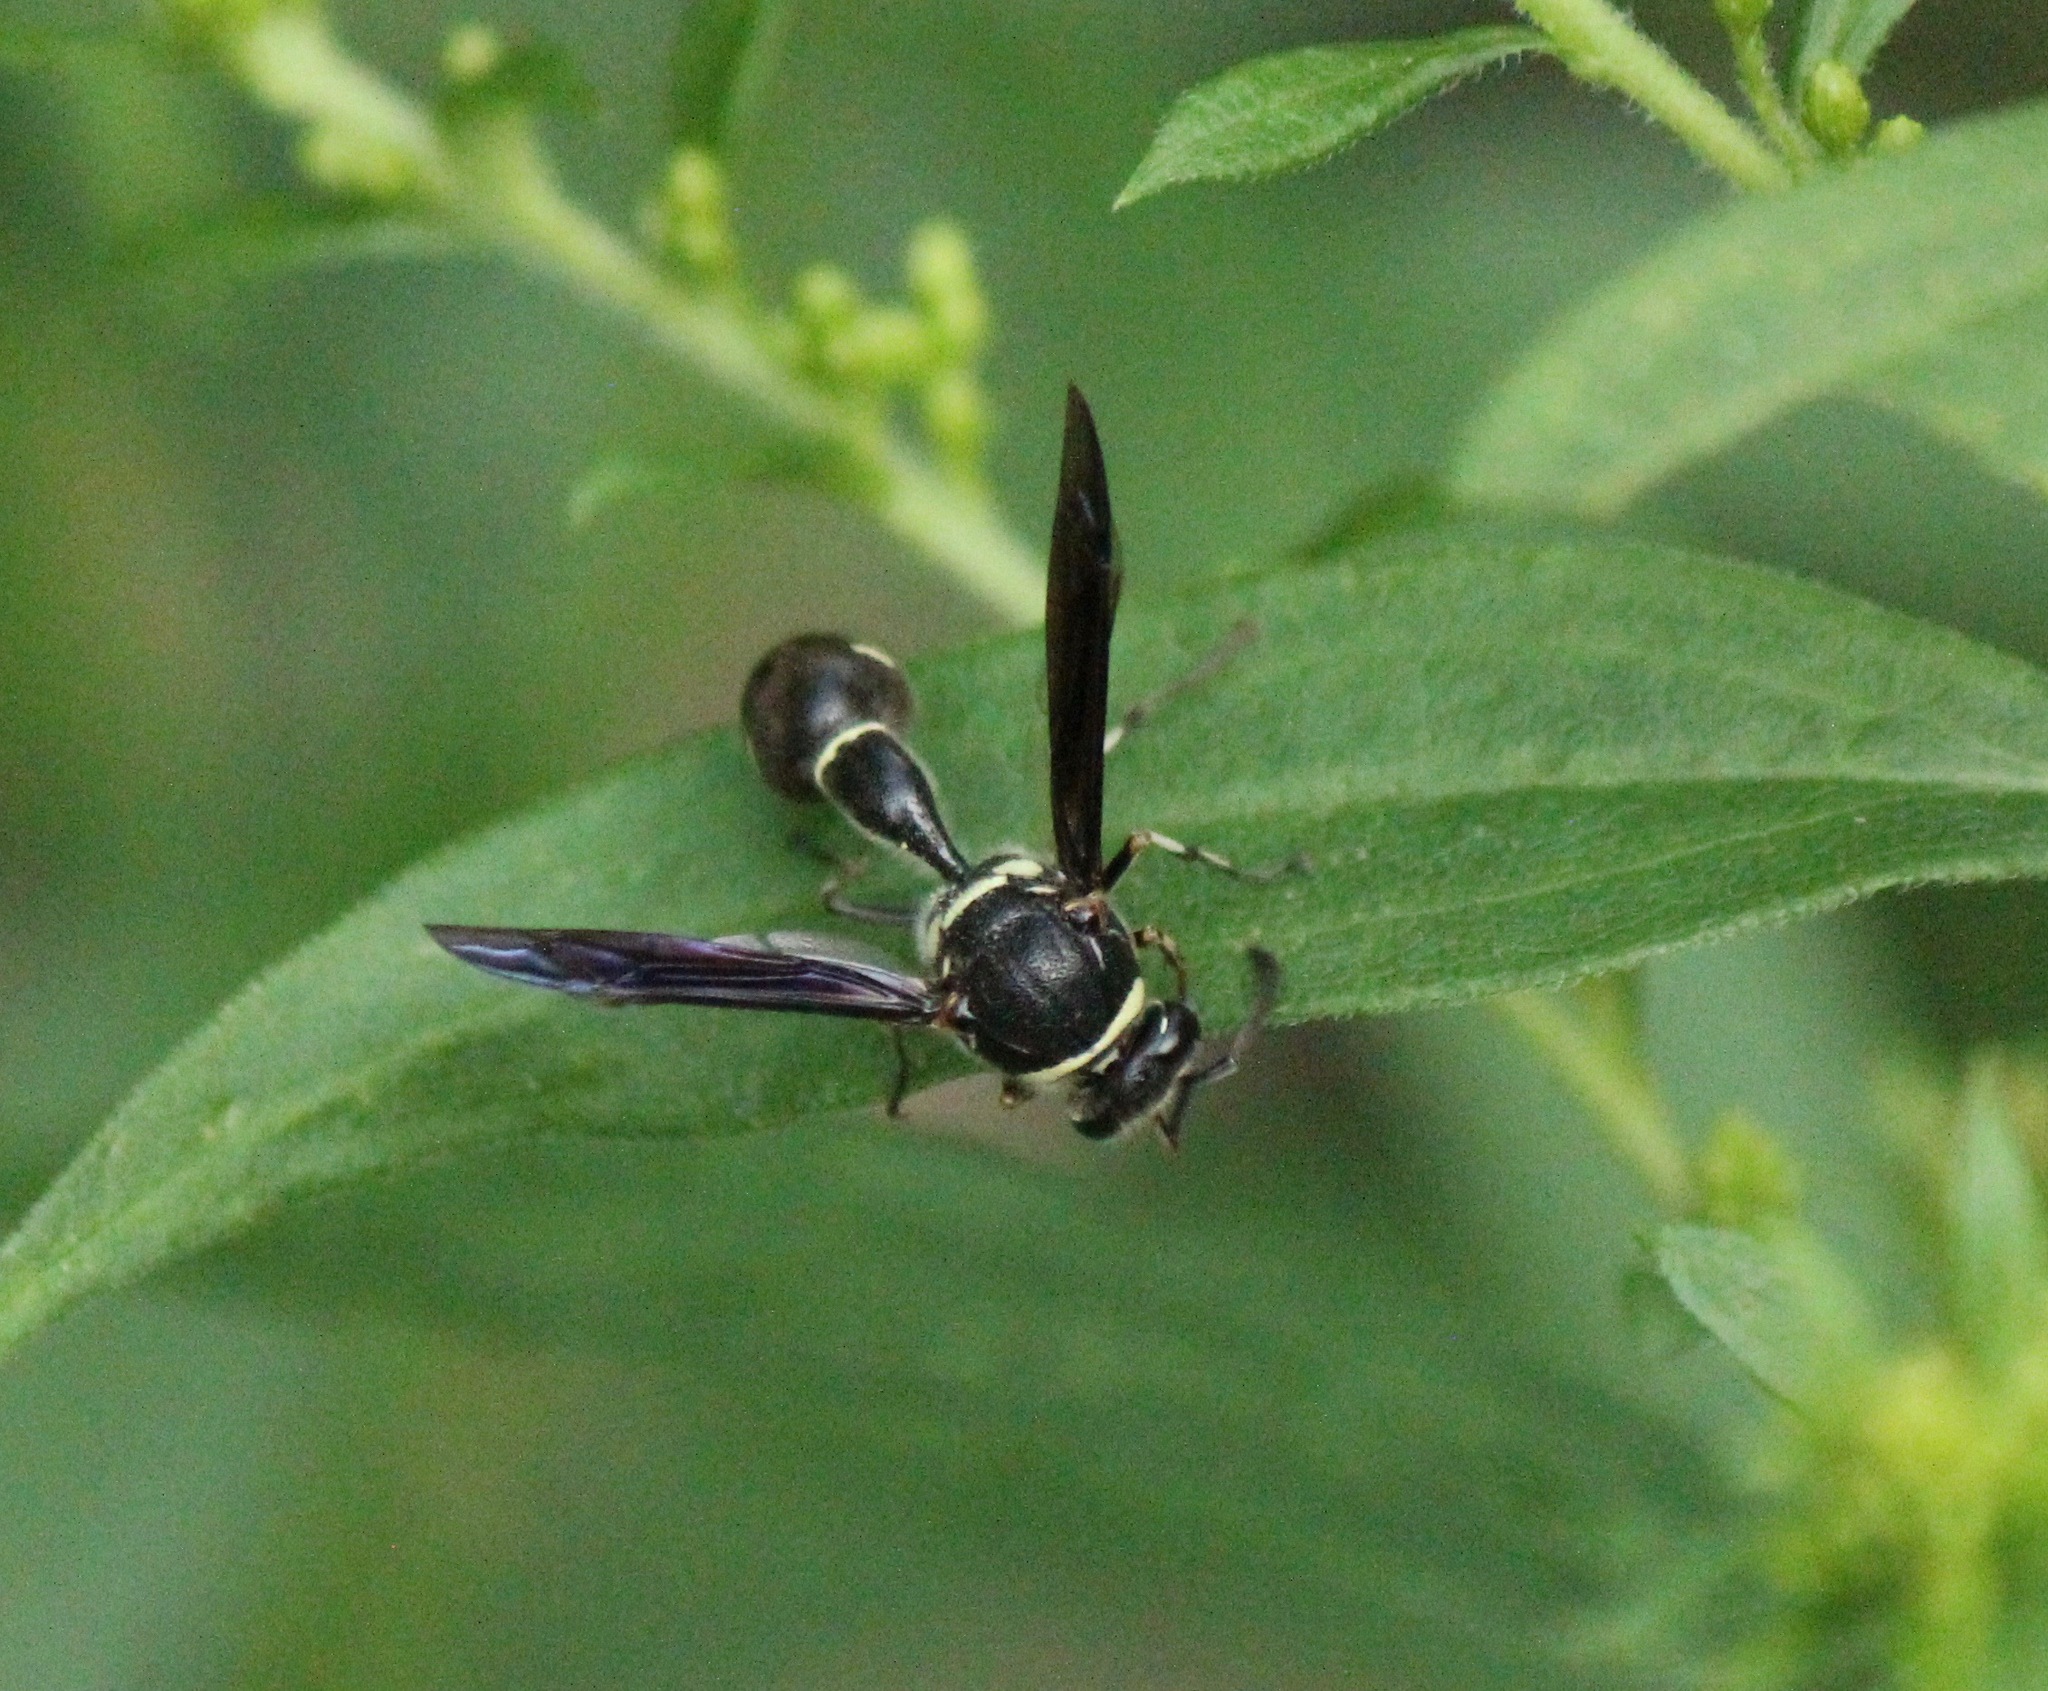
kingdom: Animalia
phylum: Arthropoda
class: Insecta
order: Hymenoptera
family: Vespidae
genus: Eumenes
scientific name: Eumenes fraternus
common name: Fraternal potter wasp
